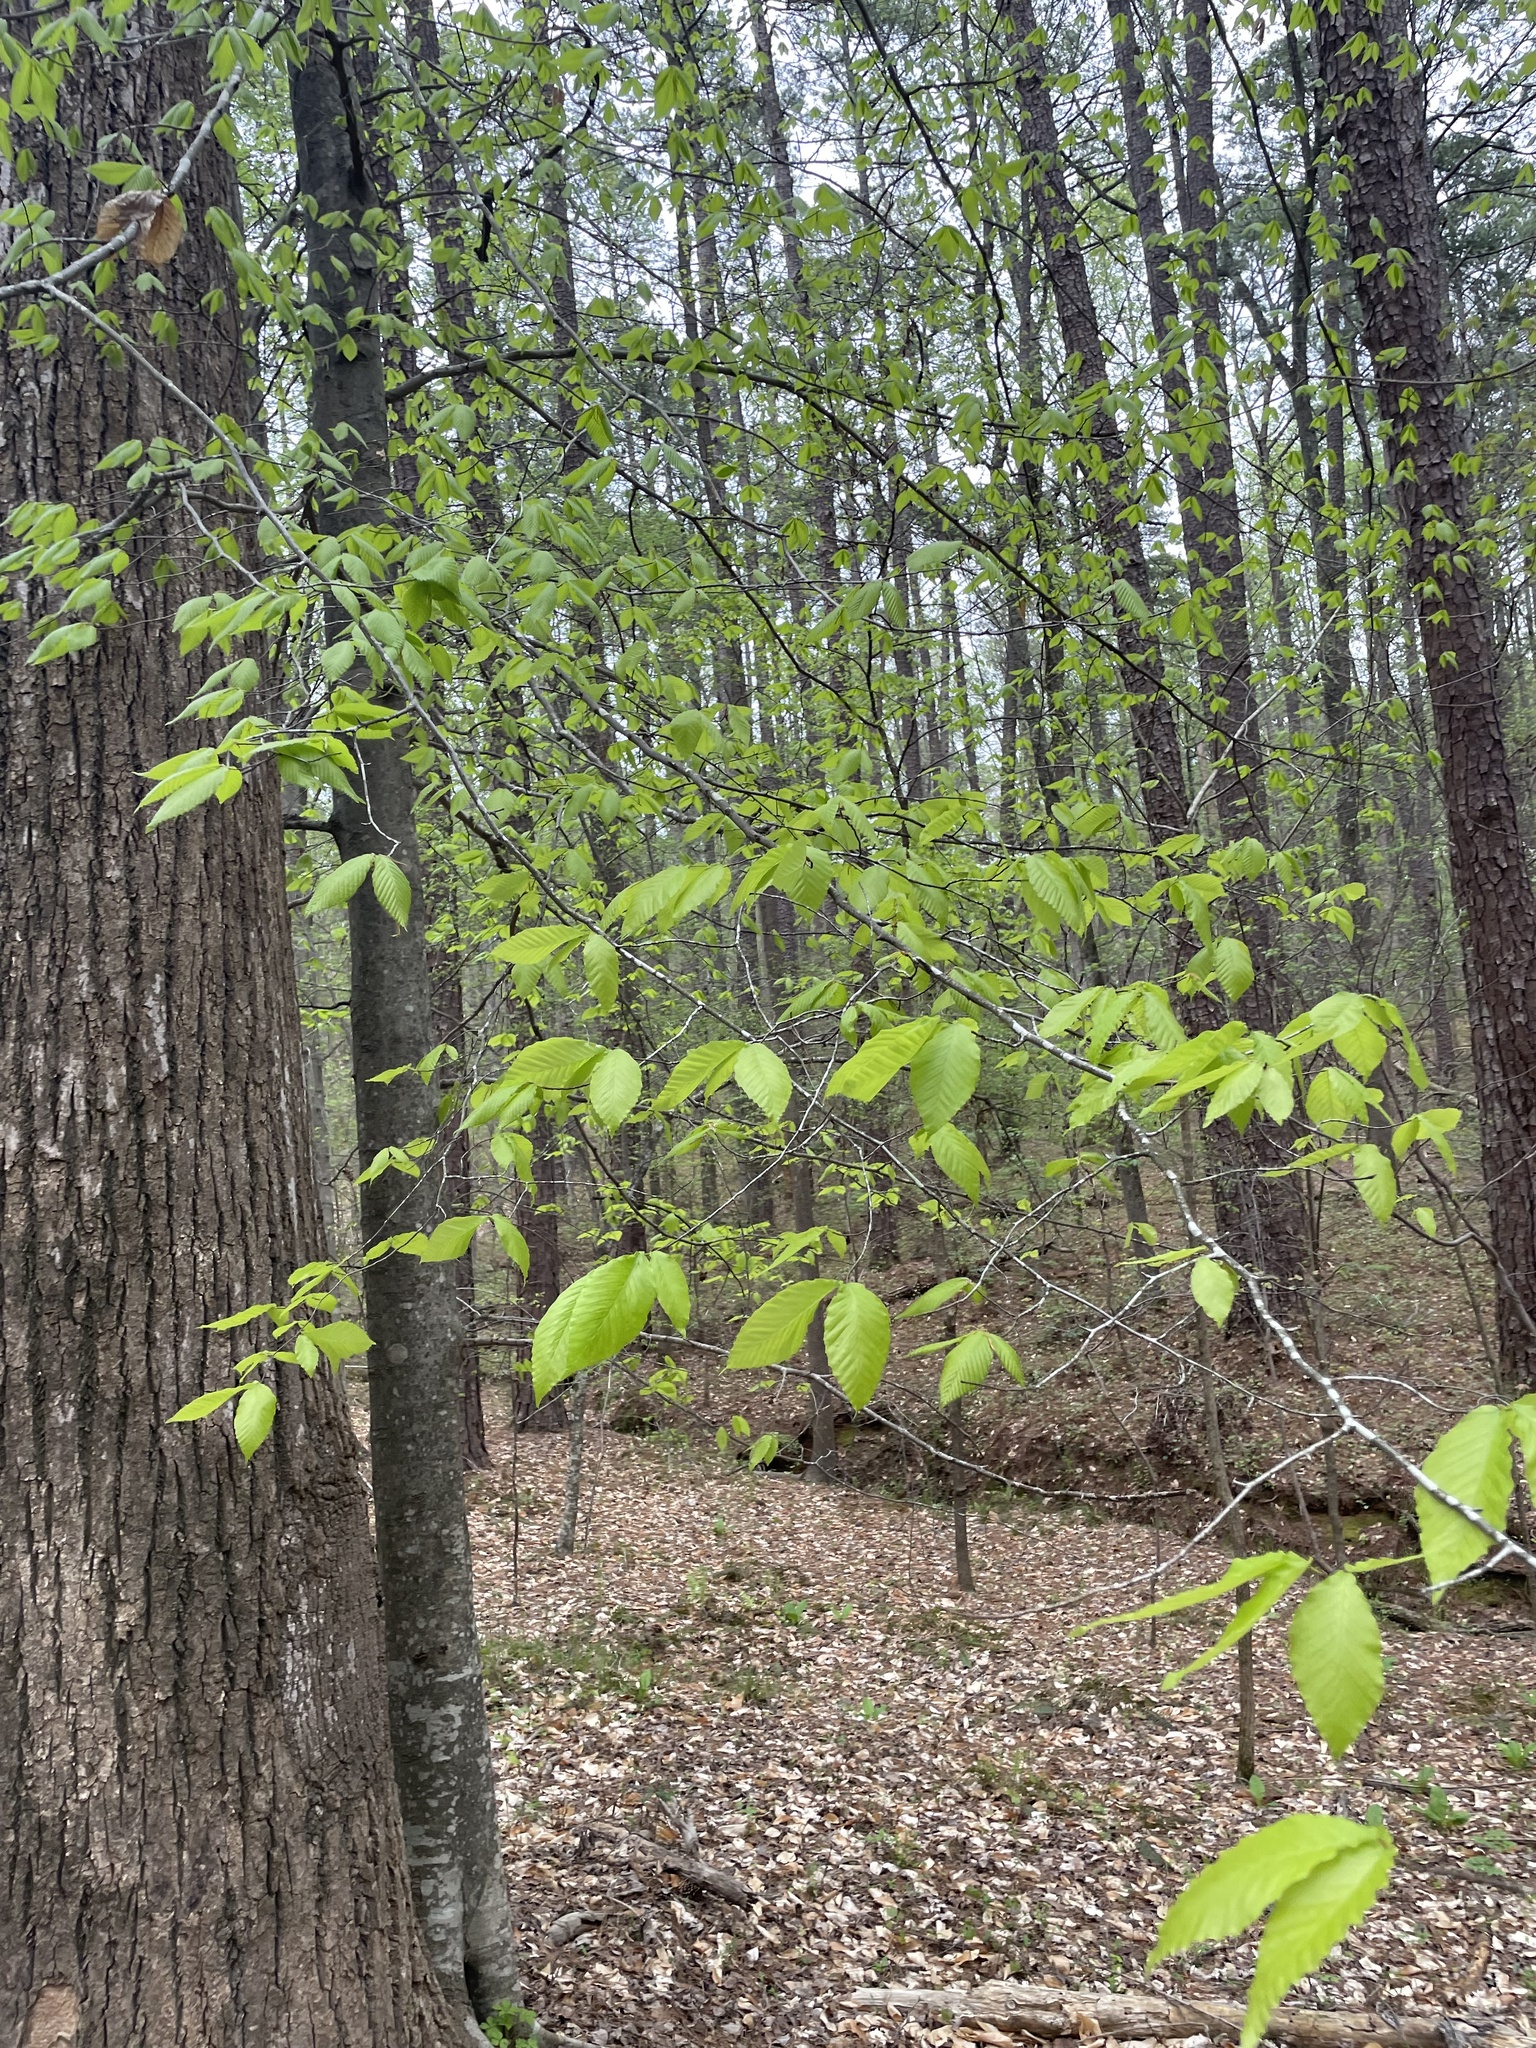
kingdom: Plantae
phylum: Tracheophyta
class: Magnoliopsida
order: Fagales
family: Fagaceae
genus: Fagus
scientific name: Fagus grandifolia
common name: American beech
